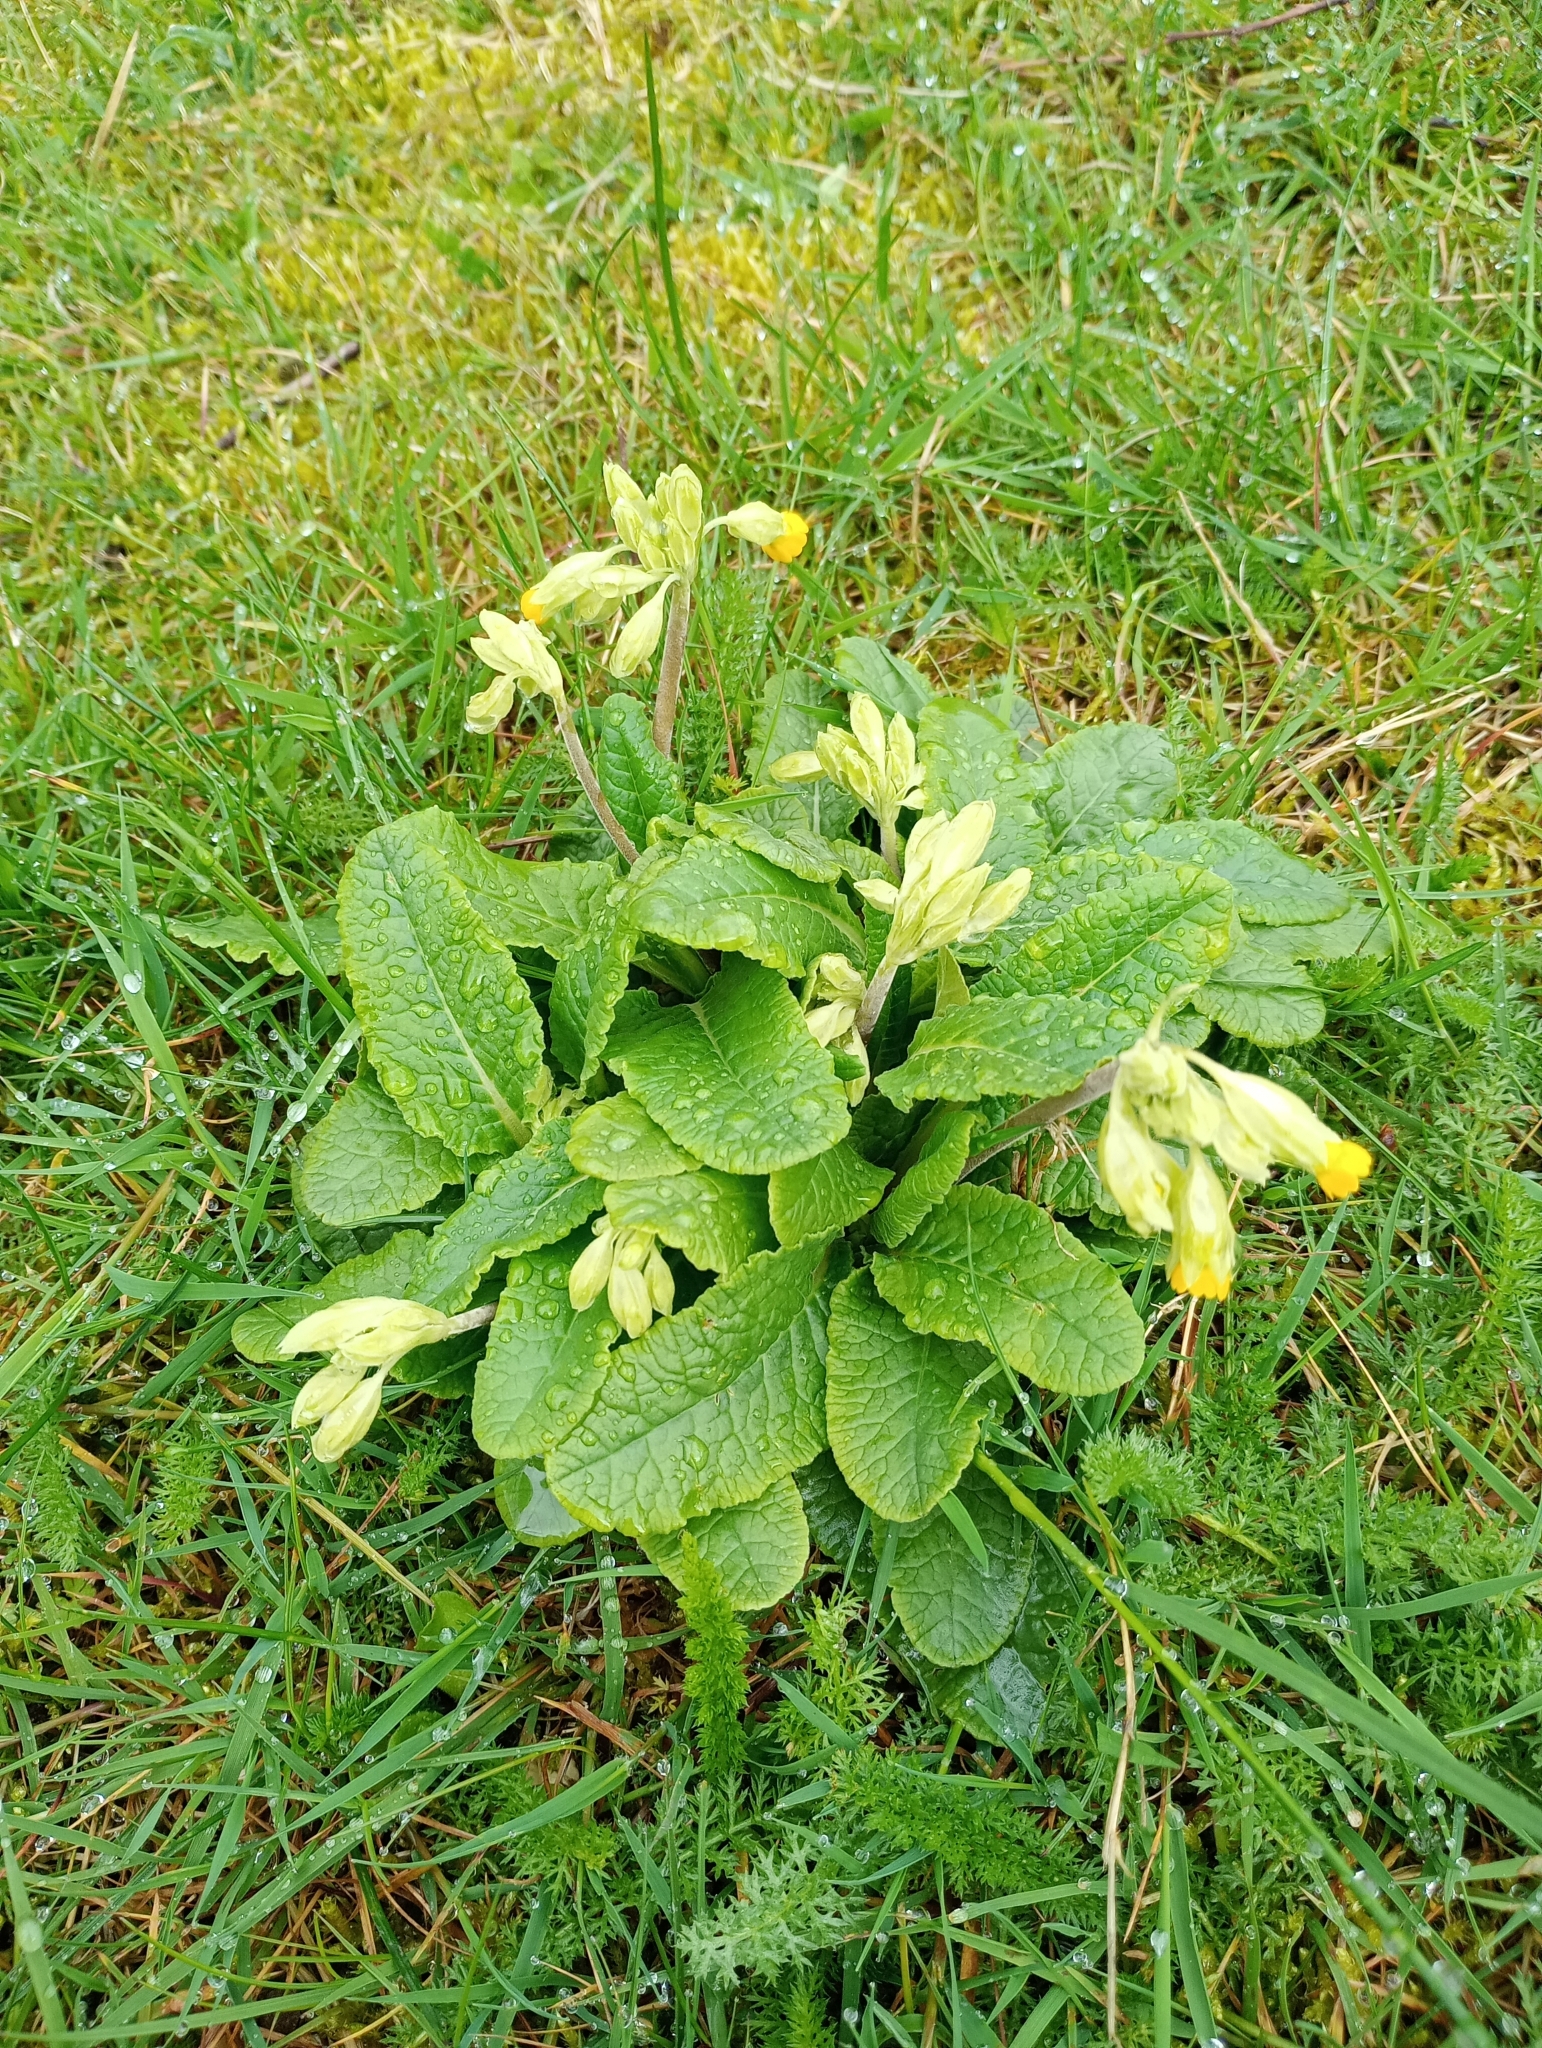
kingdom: Plantae
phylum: Tracheophyta
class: Magnoliopsida
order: Ericales
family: Primulaceae
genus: Primula
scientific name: Primula veris
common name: Cowslip
